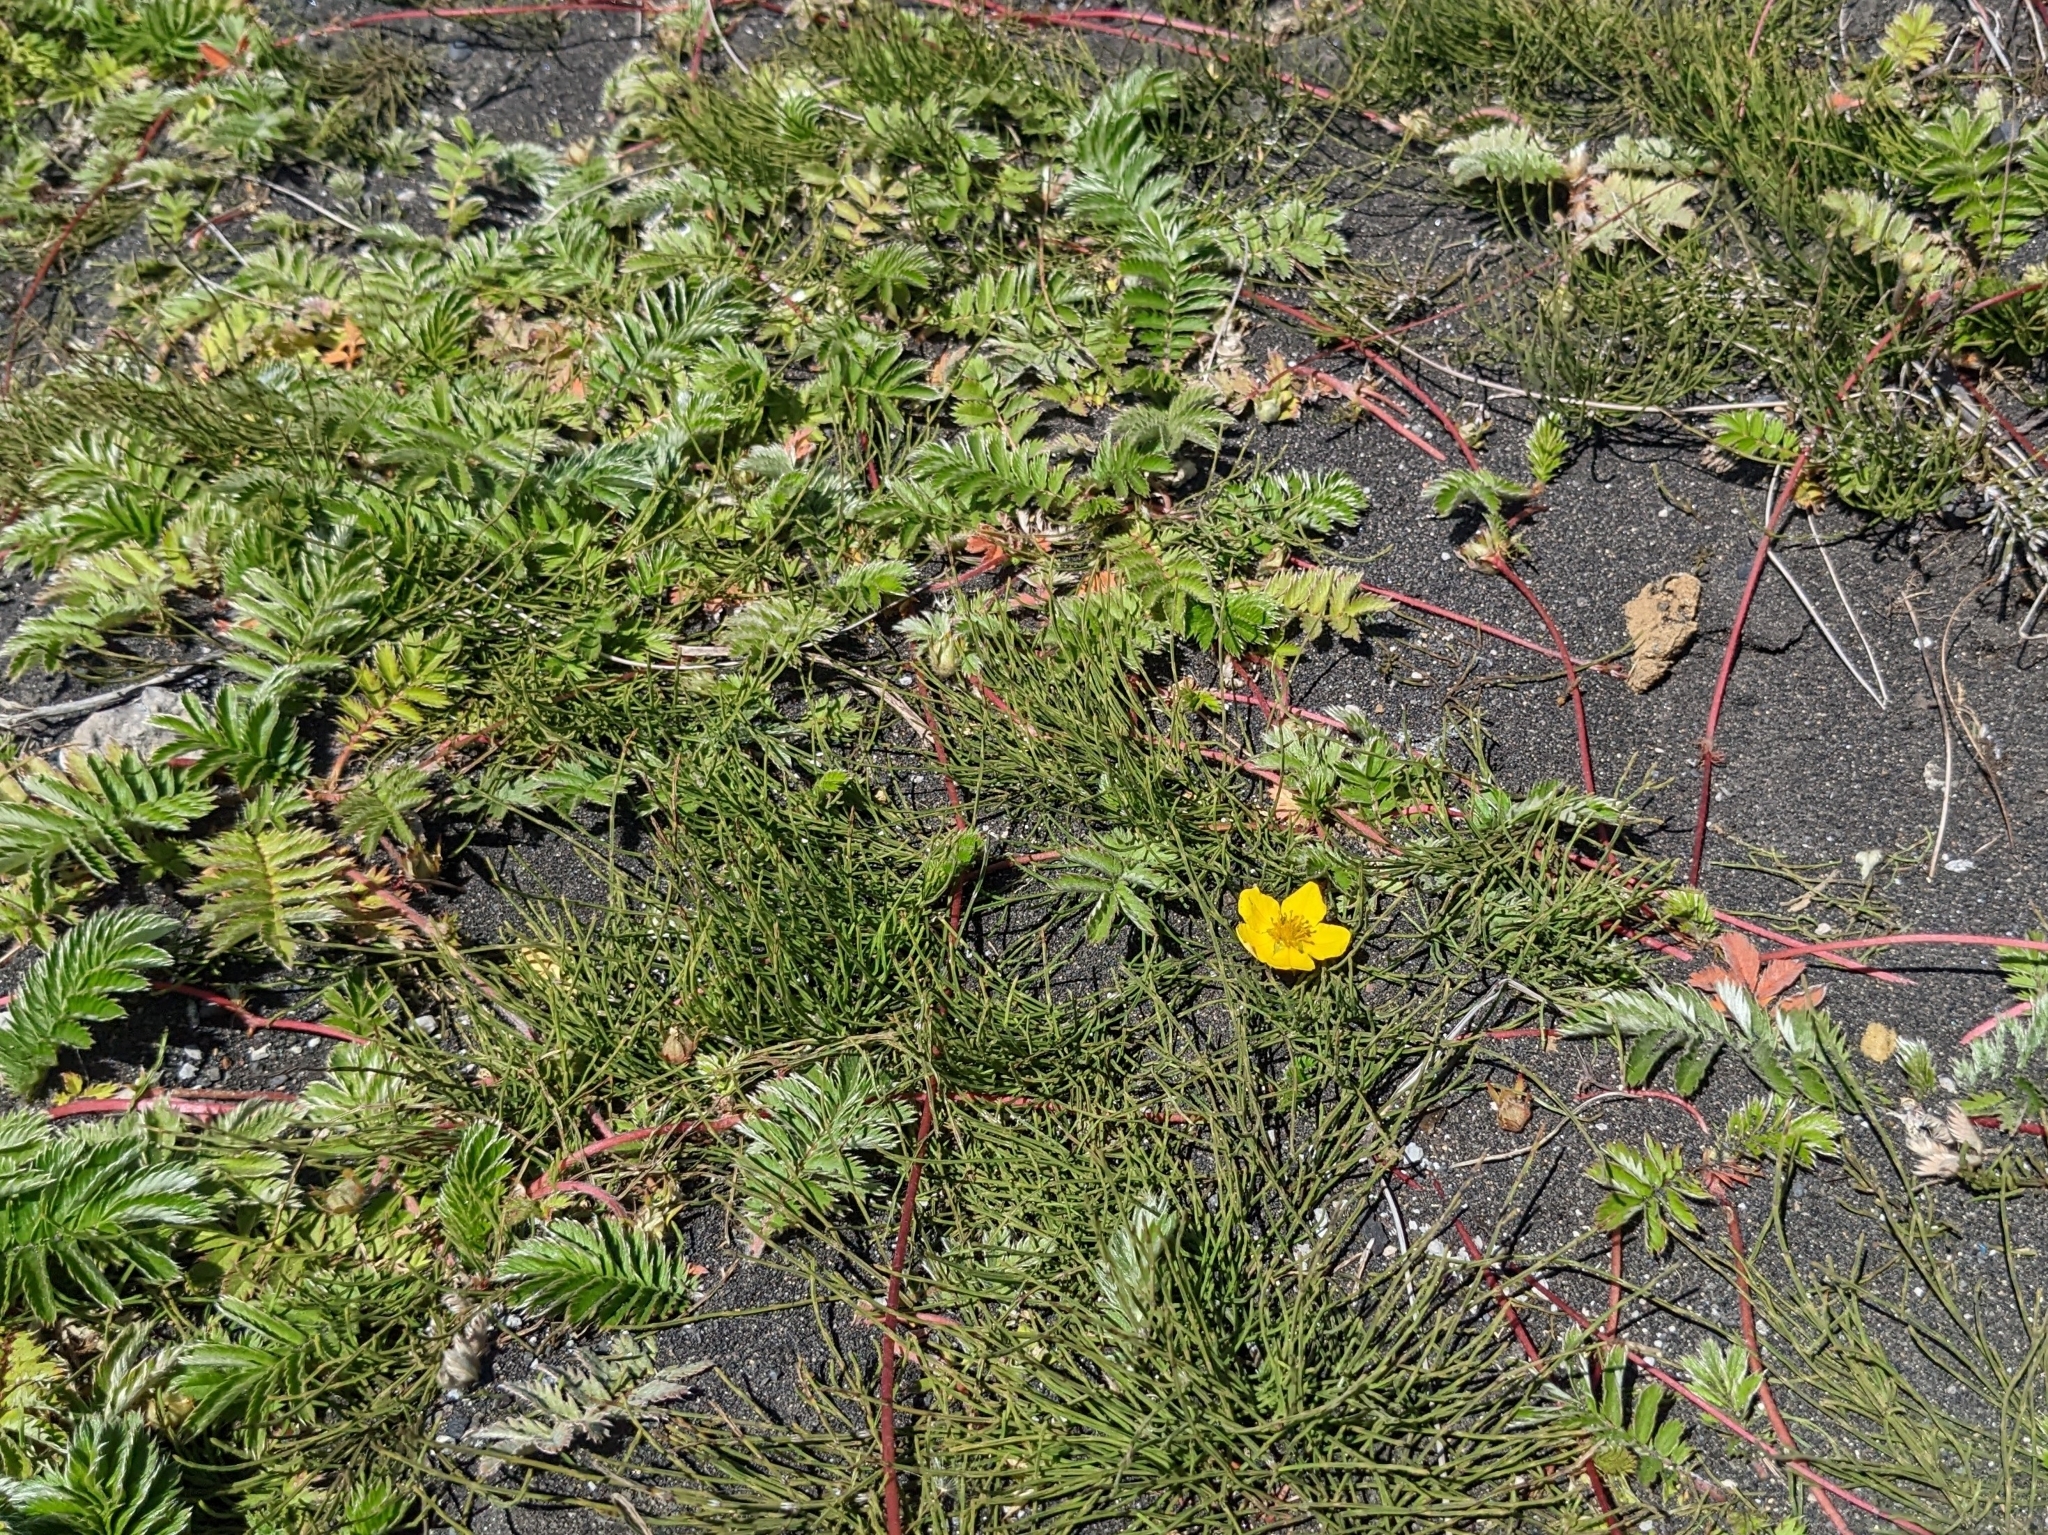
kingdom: Plantae
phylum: Tracheophyta
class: Magnoliopsida
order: Rosales
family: Rosaceae
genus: Argentina
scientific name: Argentina anserina
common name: Common silverweed
